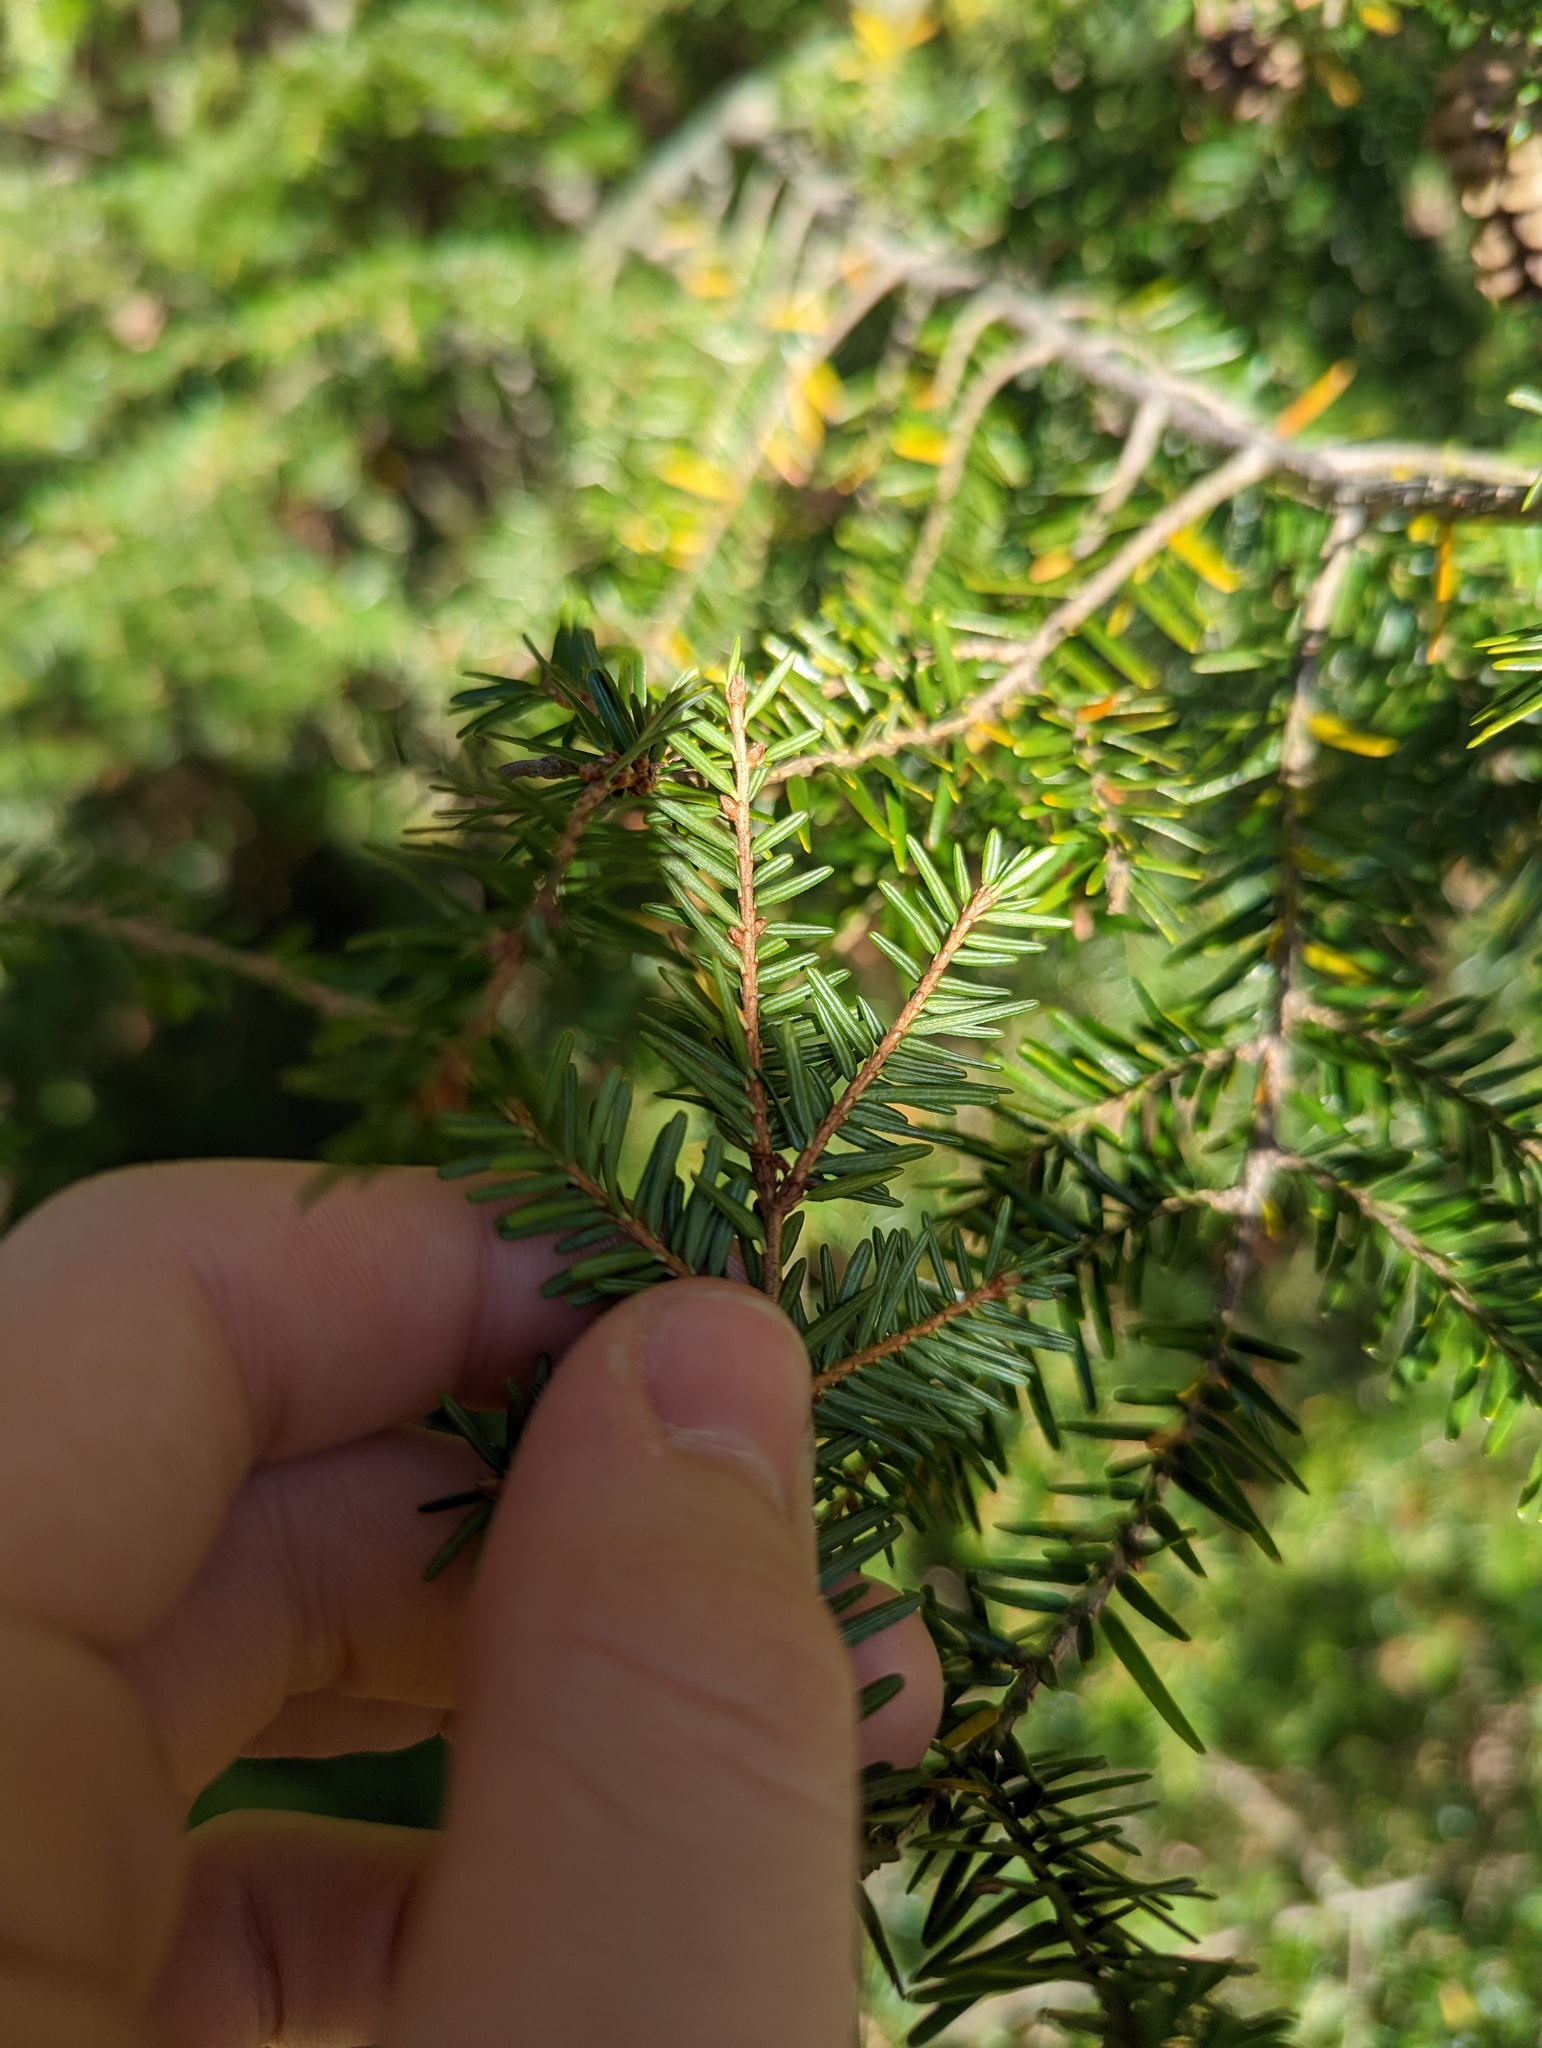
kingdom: Plantae
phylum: Tracheophyta
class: Pinopsida
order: Pinales
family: Pinaceae
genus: Tsuga
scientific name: Tsuga canadensis
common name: Eastern hemlock
